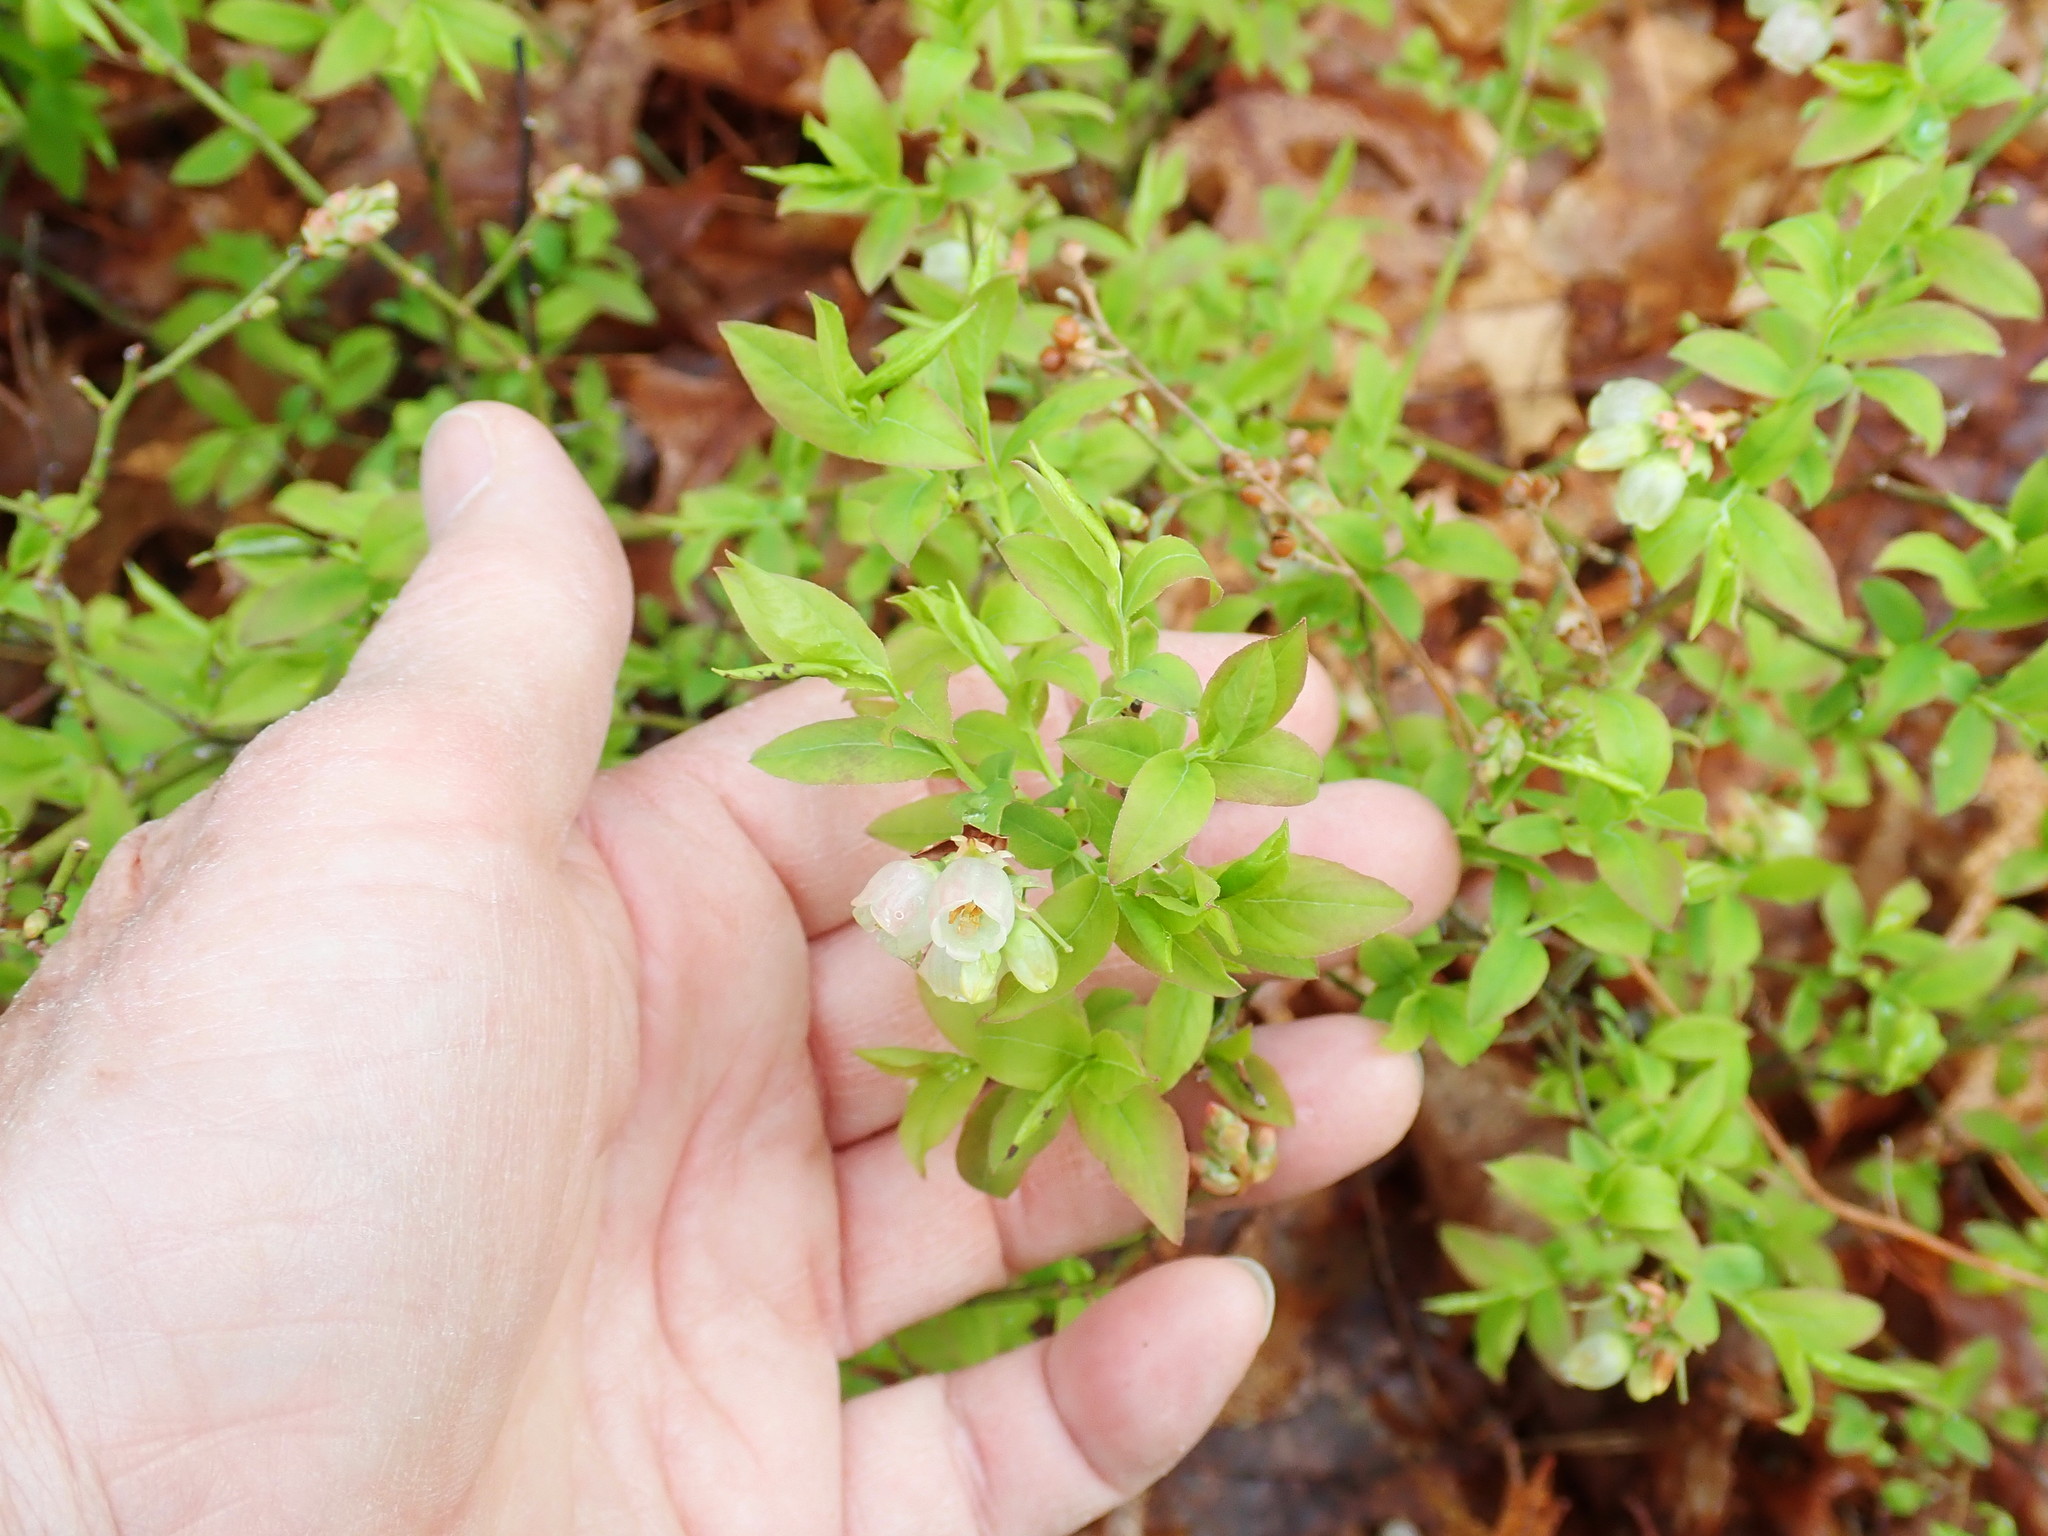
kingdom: Plantae
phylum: Tracheophyta
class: Magnoliopsida
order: Ericales
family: Ericaceae
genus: Vaccinium
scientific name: Vaccinium angustifolium
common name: Early lowbush blueberry
